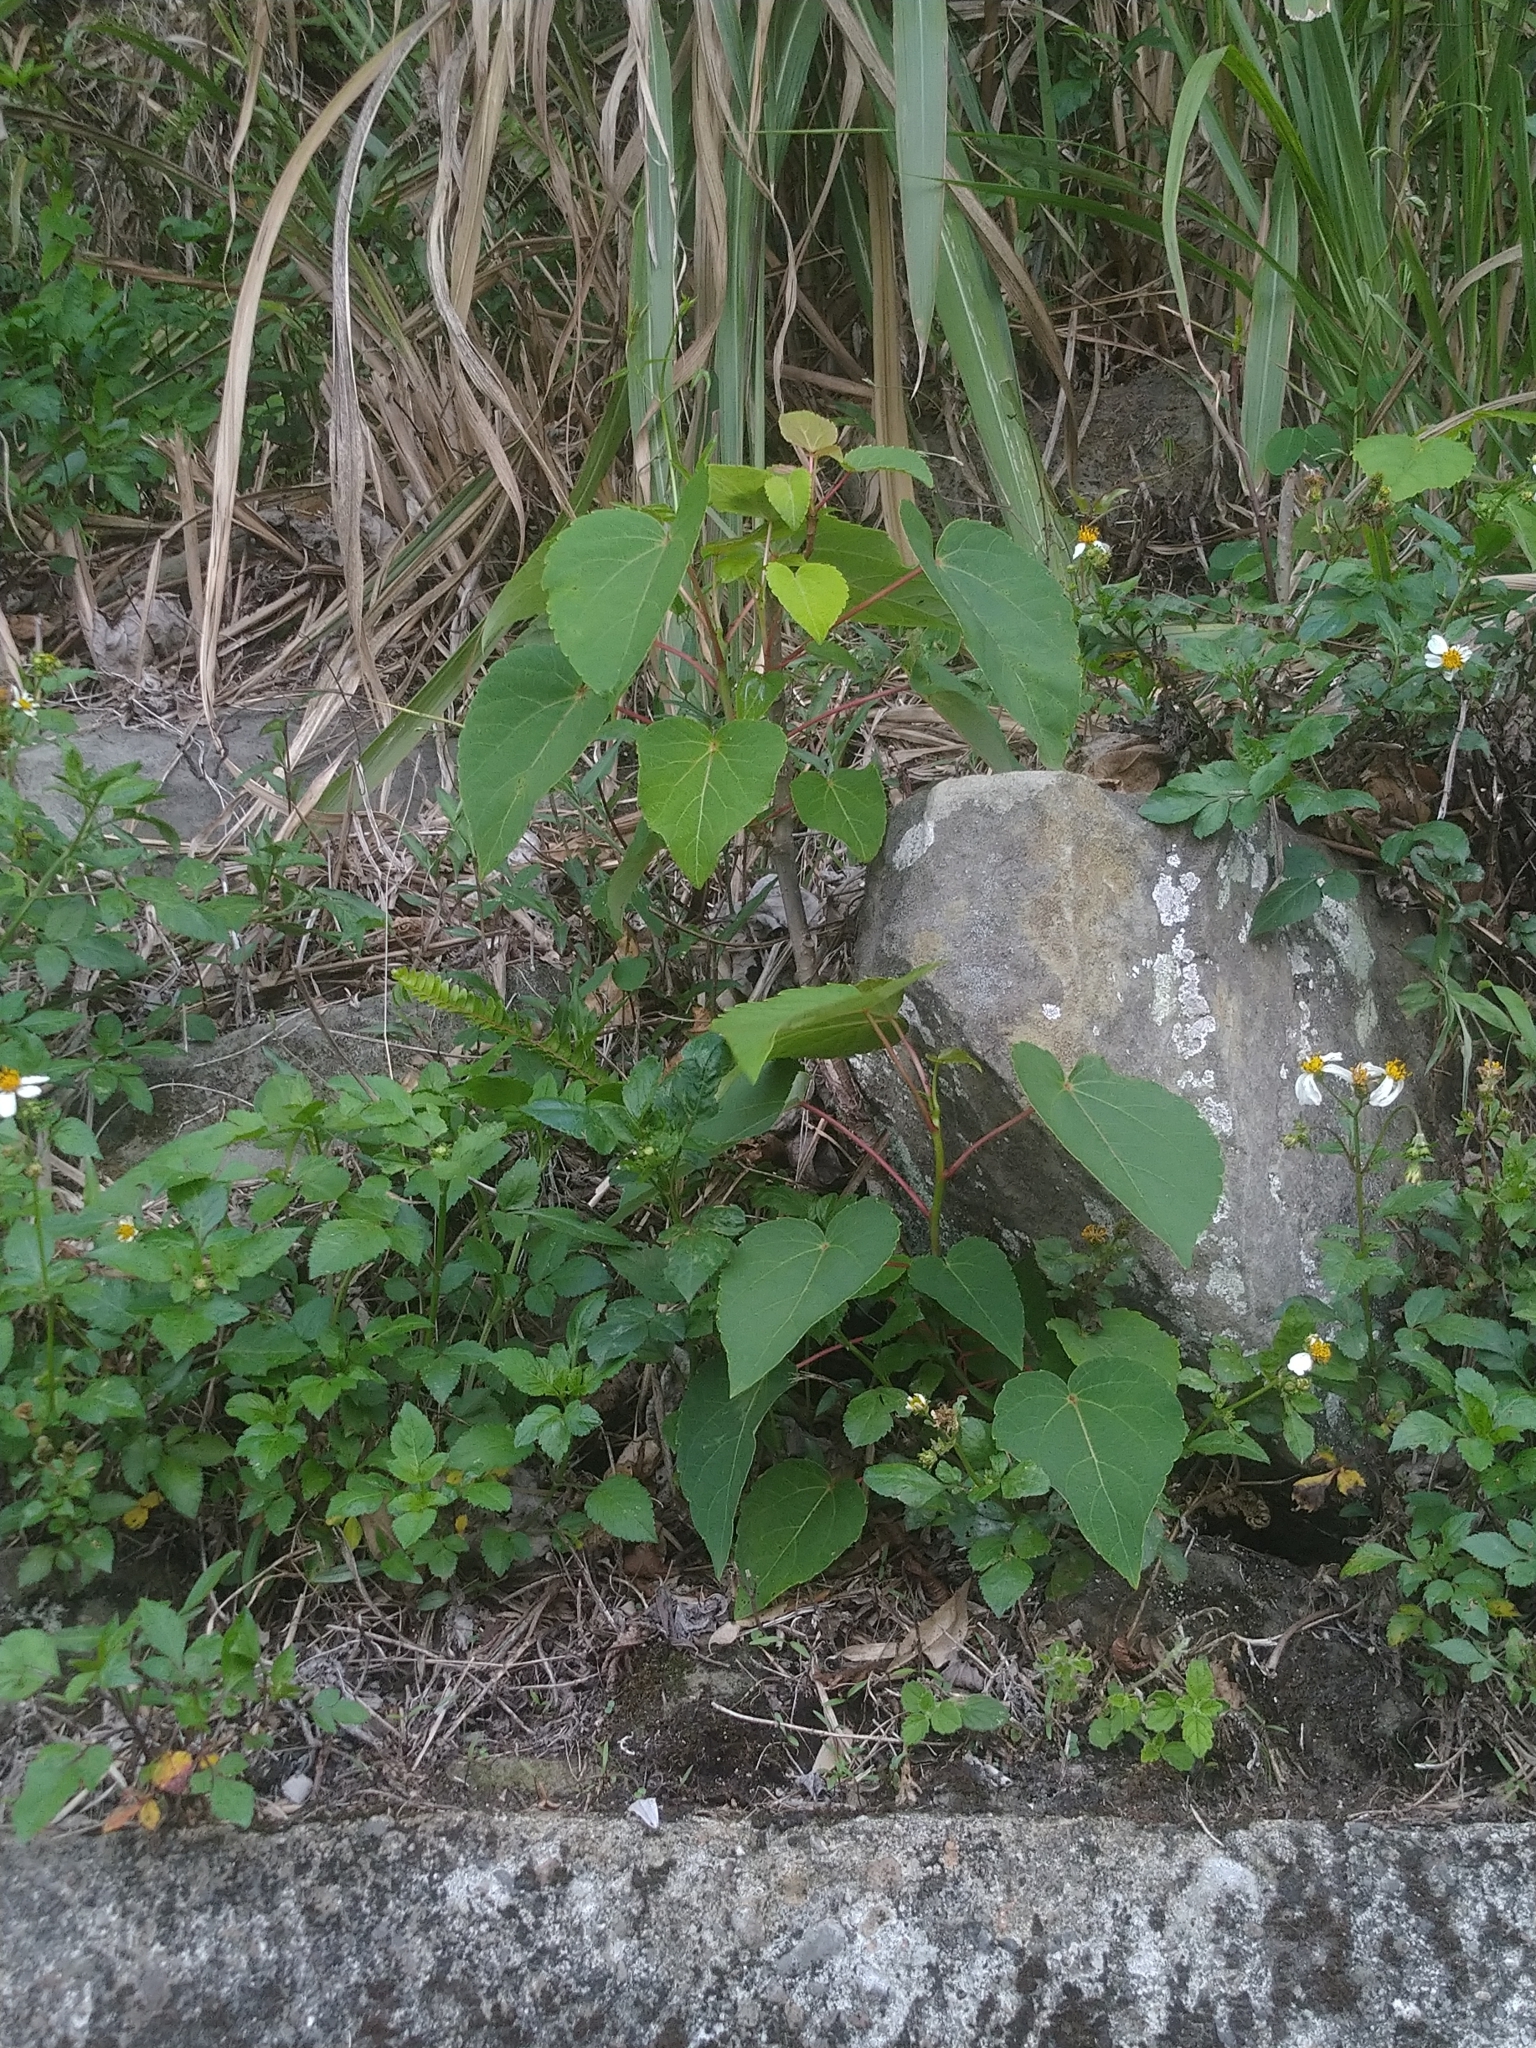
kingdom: Plantae
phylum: Tracheophyta
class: Magnoliopsida
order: Malpighiales
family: Salicaceae
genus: Idesia
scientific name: Idesia polycarpa
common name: Idesia tree
